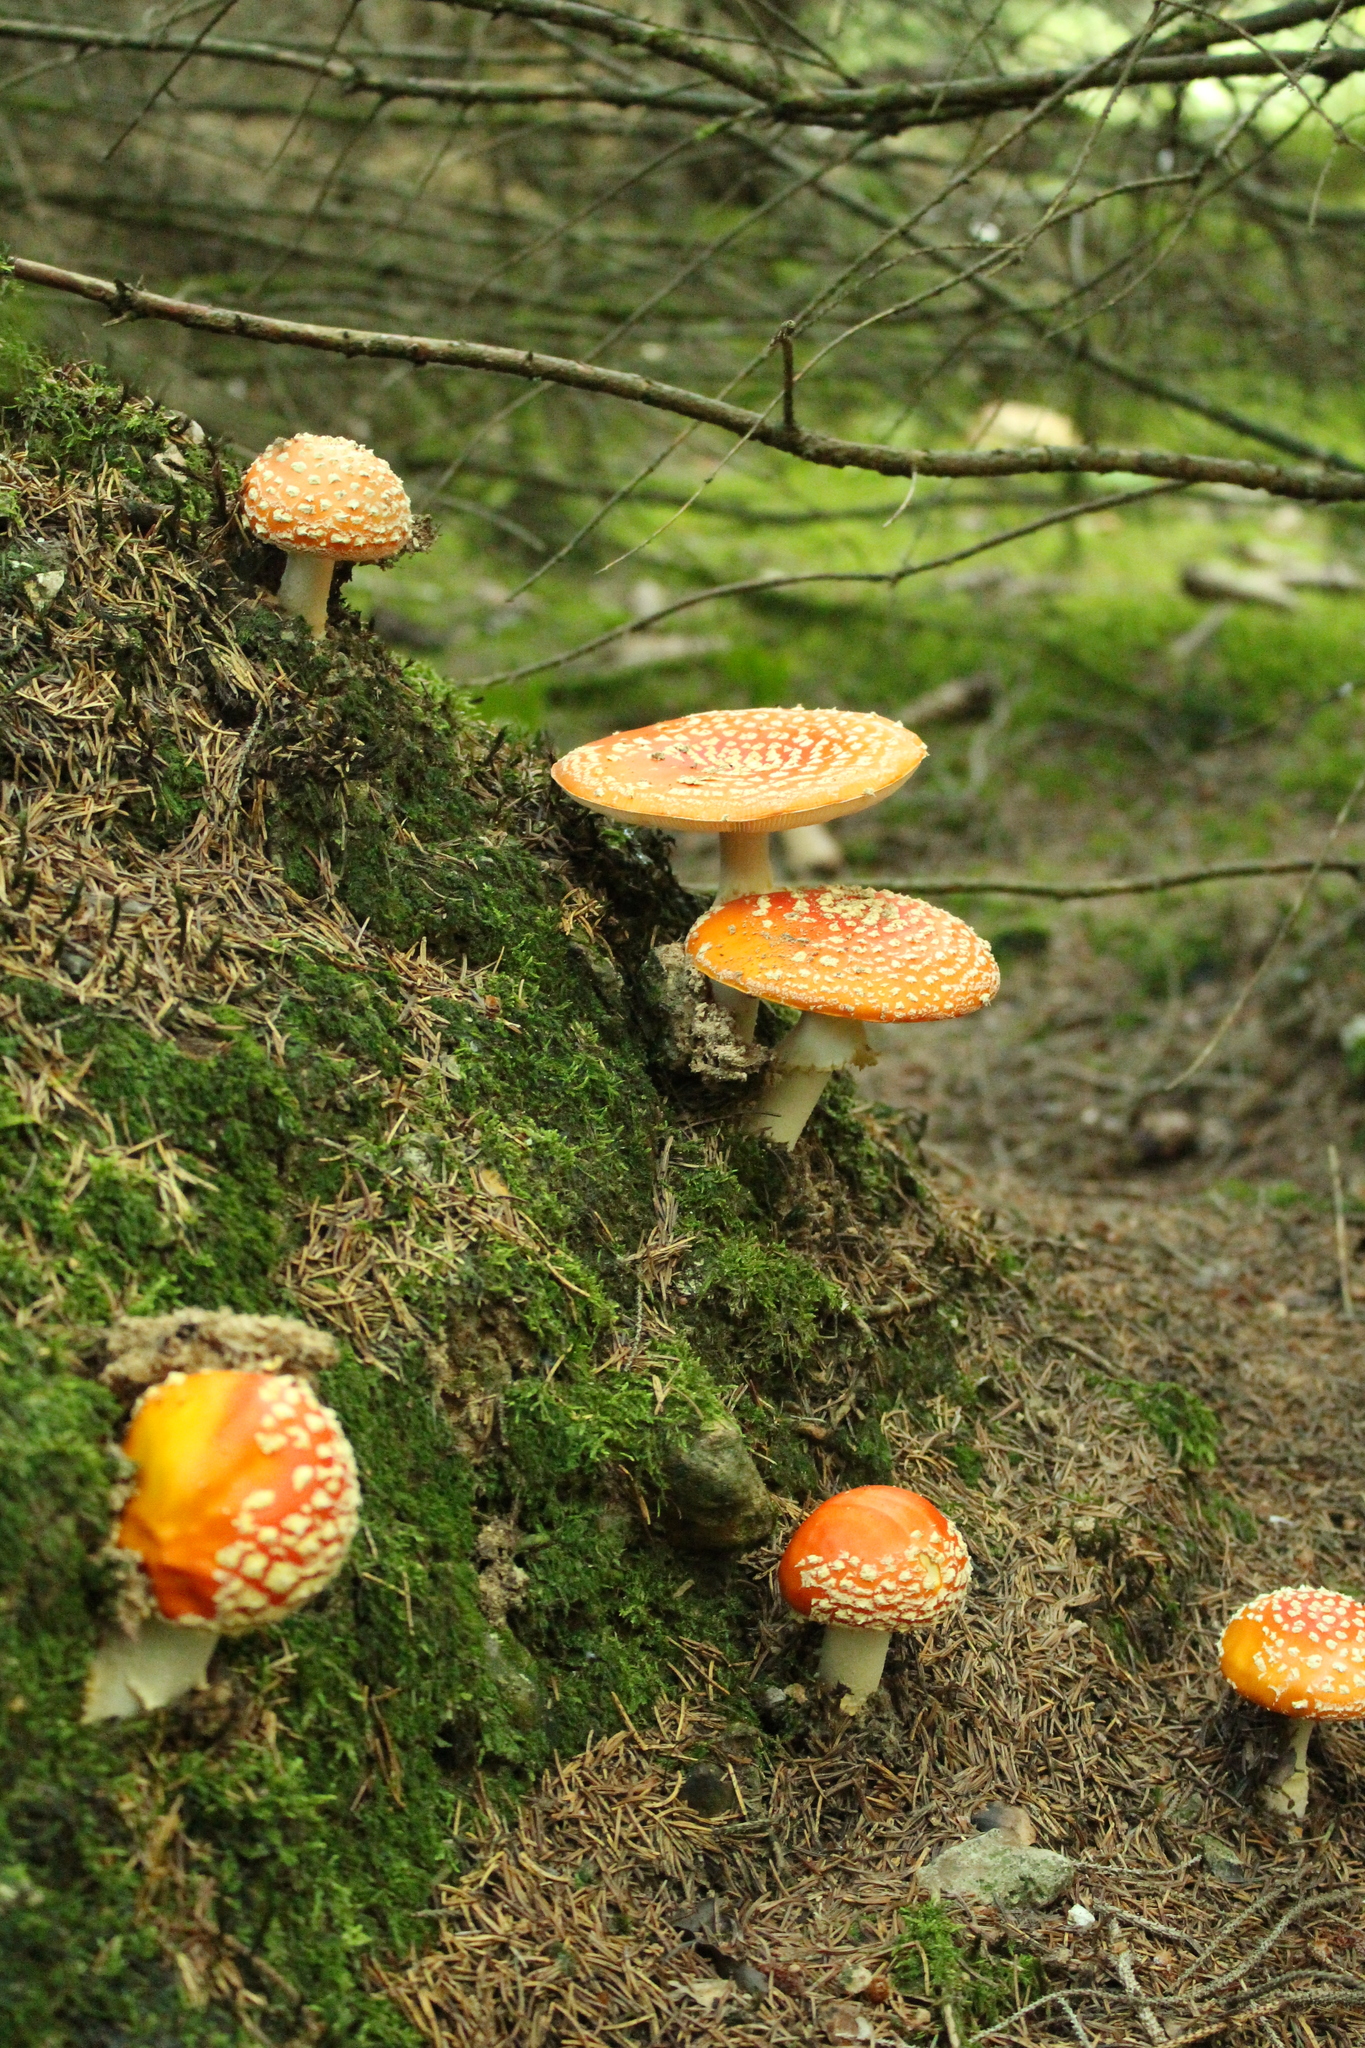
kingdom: Fungi
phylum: Basidiomycota
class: Agaricomycetes
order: Agaricales
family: Amanitaceae
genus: Amanita
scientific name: Amanita muscaria
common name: Fly agaric
